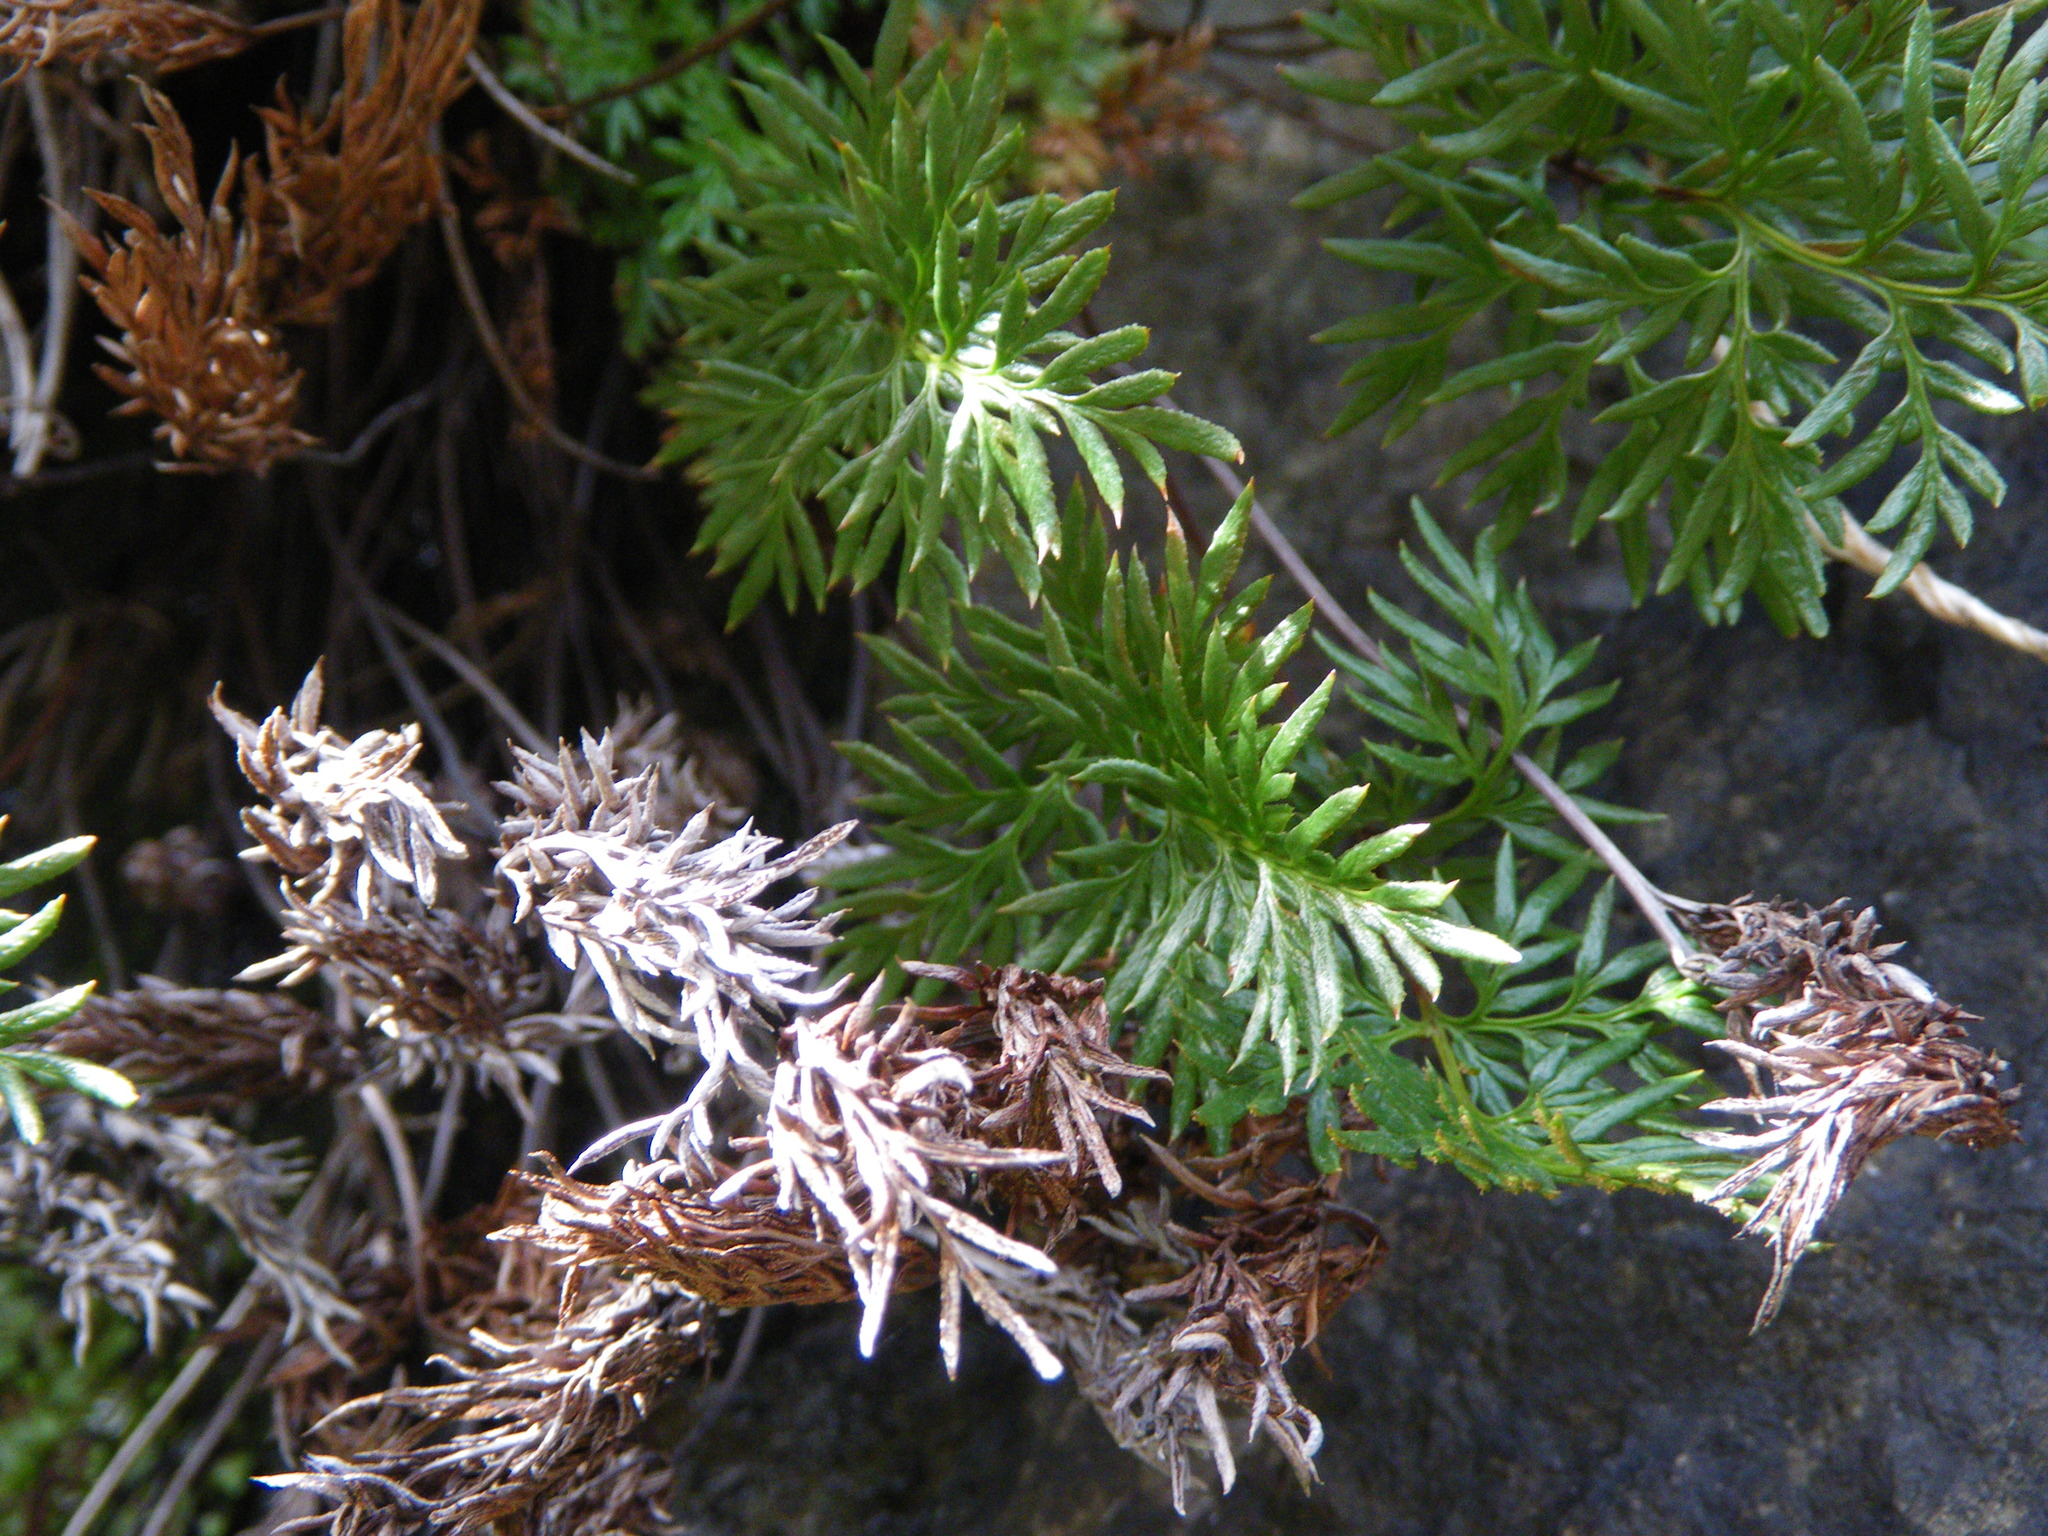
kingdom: Plantae
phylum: Tracheophyta
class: Polypodiopsida
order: Polypodiales
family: Pteridaceae
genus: Aspidotis
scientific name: Aspidotis densa
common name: Indian's dream
